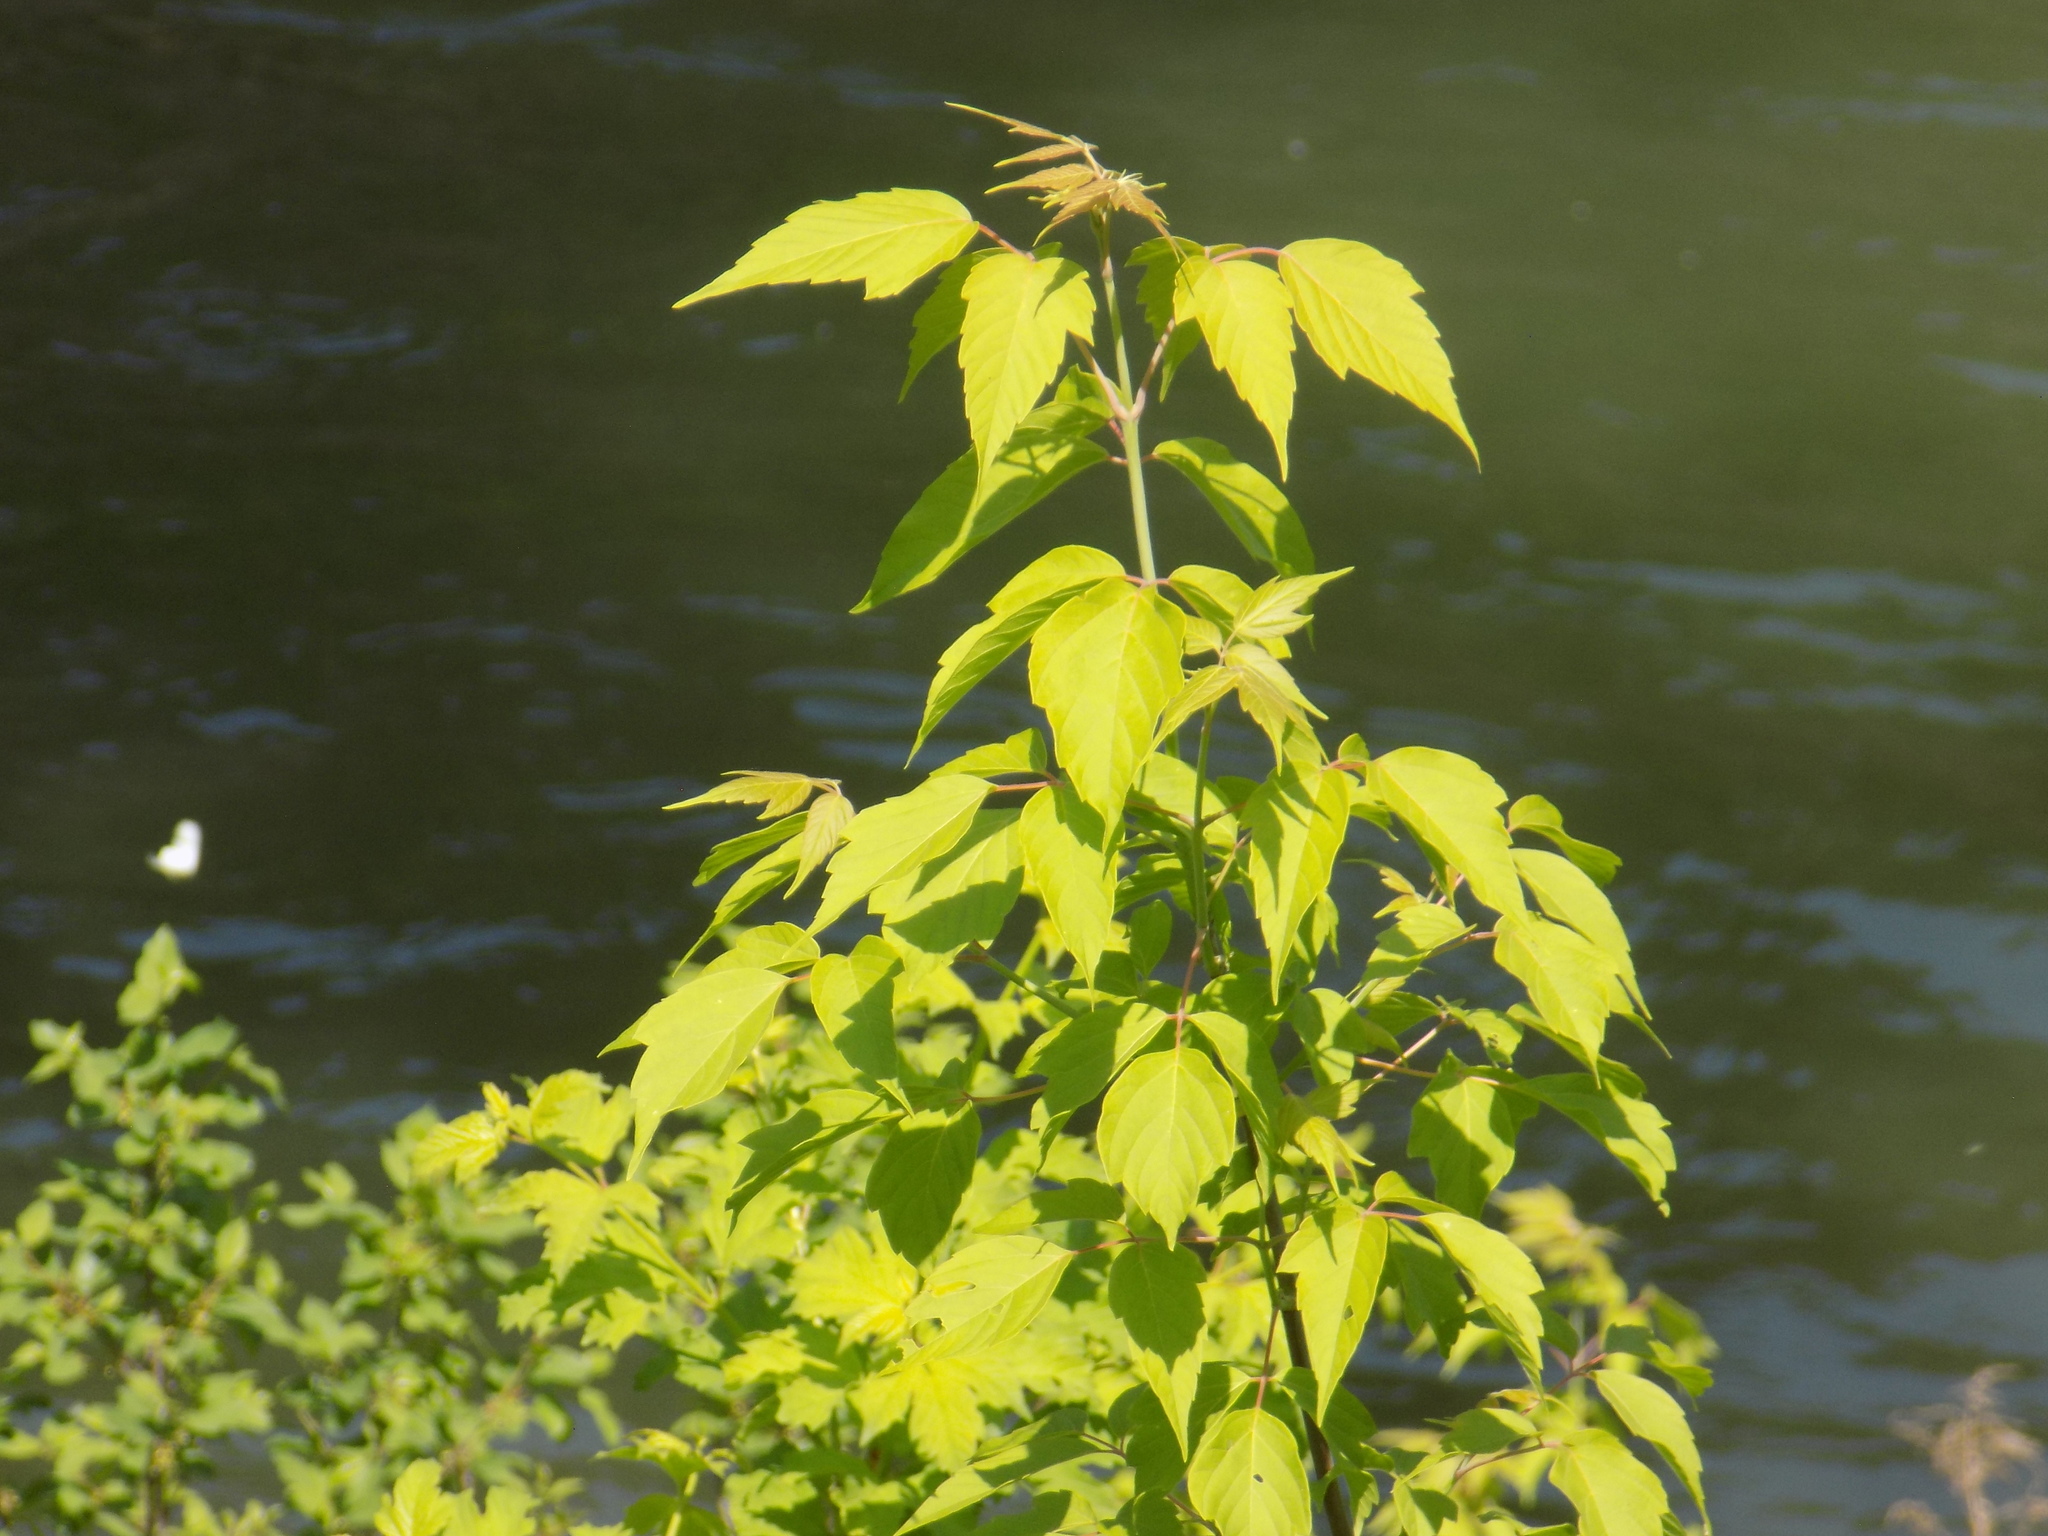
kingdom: Plantae
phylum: Tracheophyta
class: Magnoliopsida
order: Sapindales
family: Sapindaceae
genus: Acer
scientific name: Acer negundo
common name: Ashleaf maple
